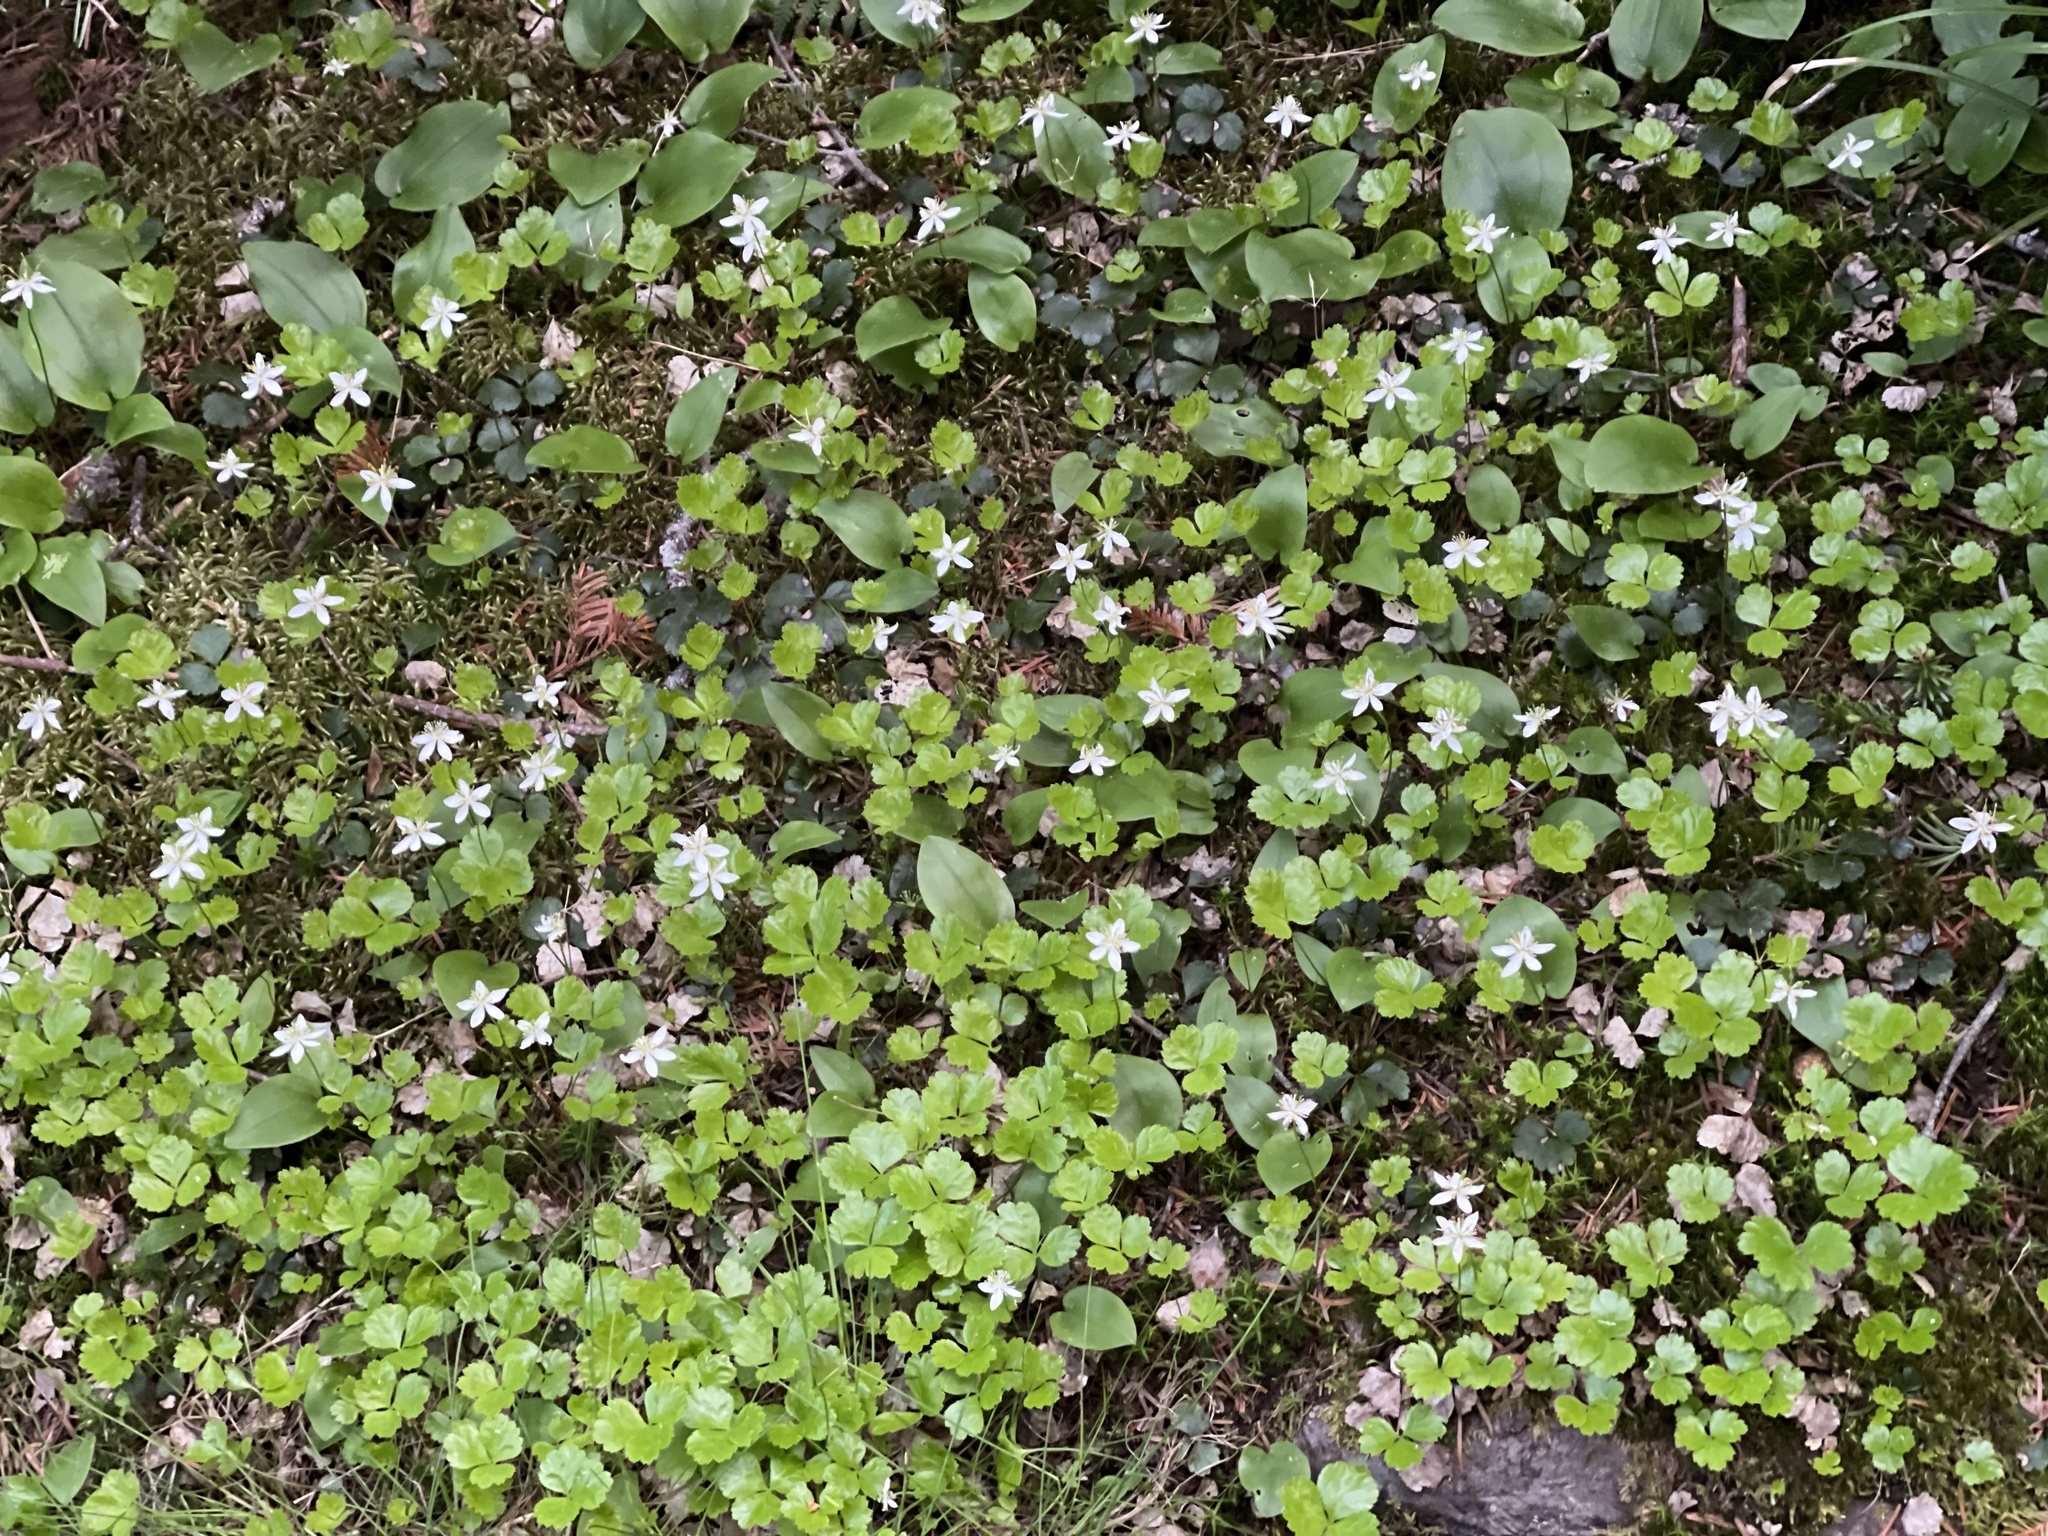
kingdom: Plantae
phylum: Tracheophyta
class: Magnoliopsida
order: Ranunculales
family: Ranunculaceae
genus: Coptis
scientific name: Coptis trifolia
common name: Canker-root
